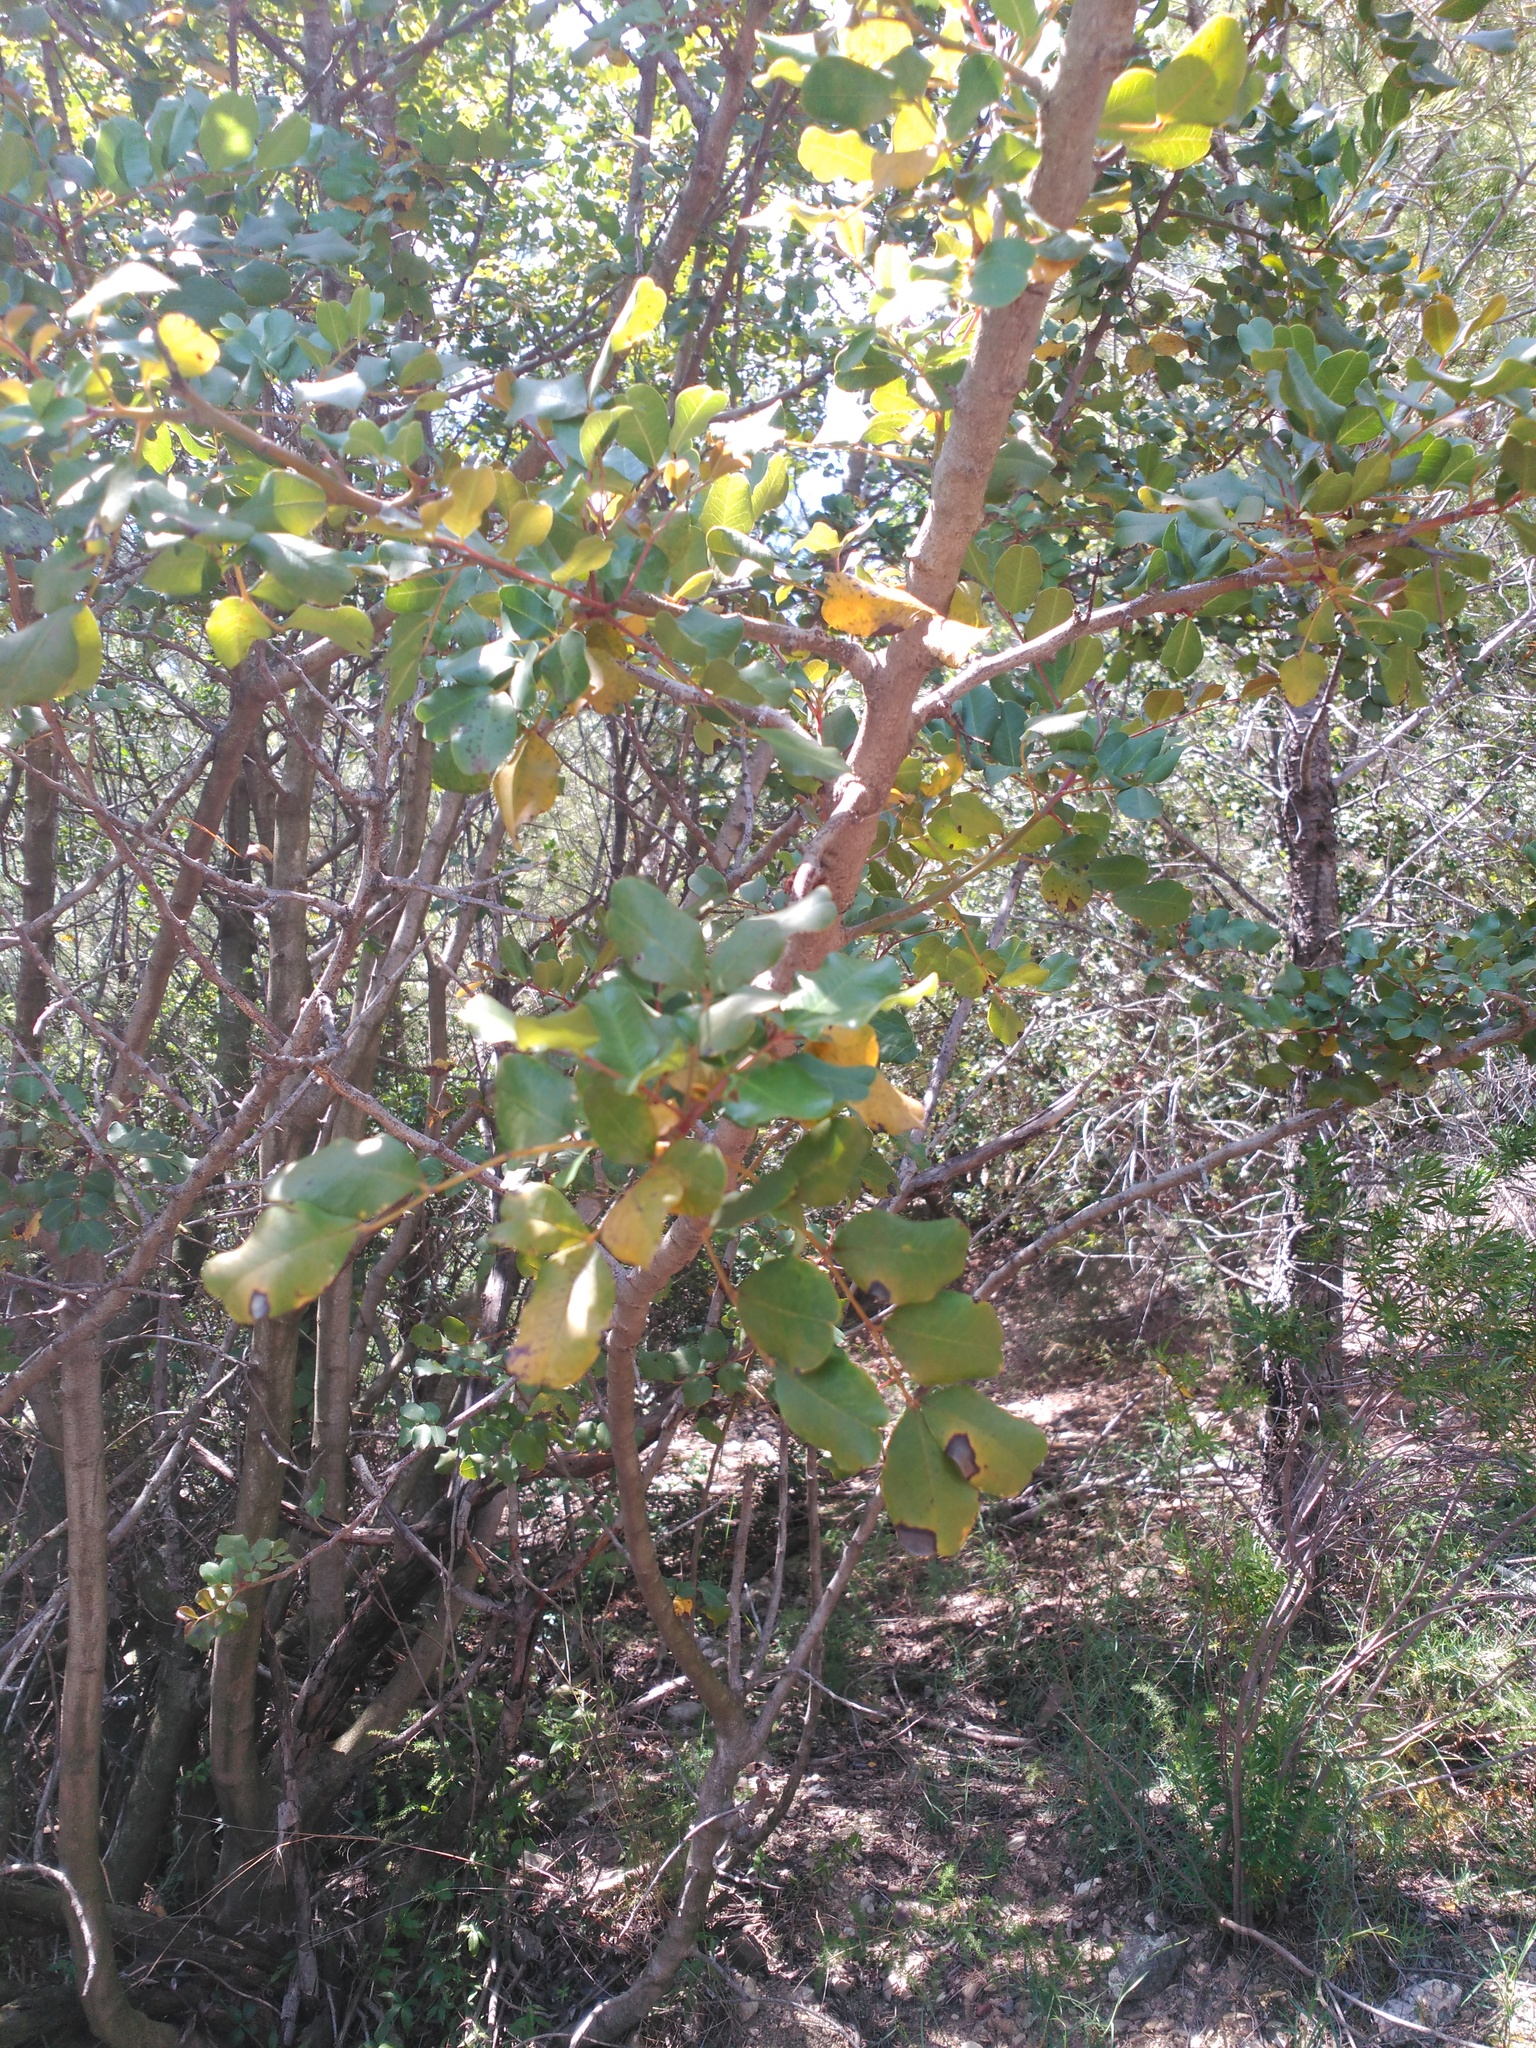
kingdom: Plantae
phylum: Tracheophyta
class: Magnoliopsida
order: Fabales
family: Fabaceae
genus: Ceratonia
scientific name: Ceratonia siliqua
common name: Carob
